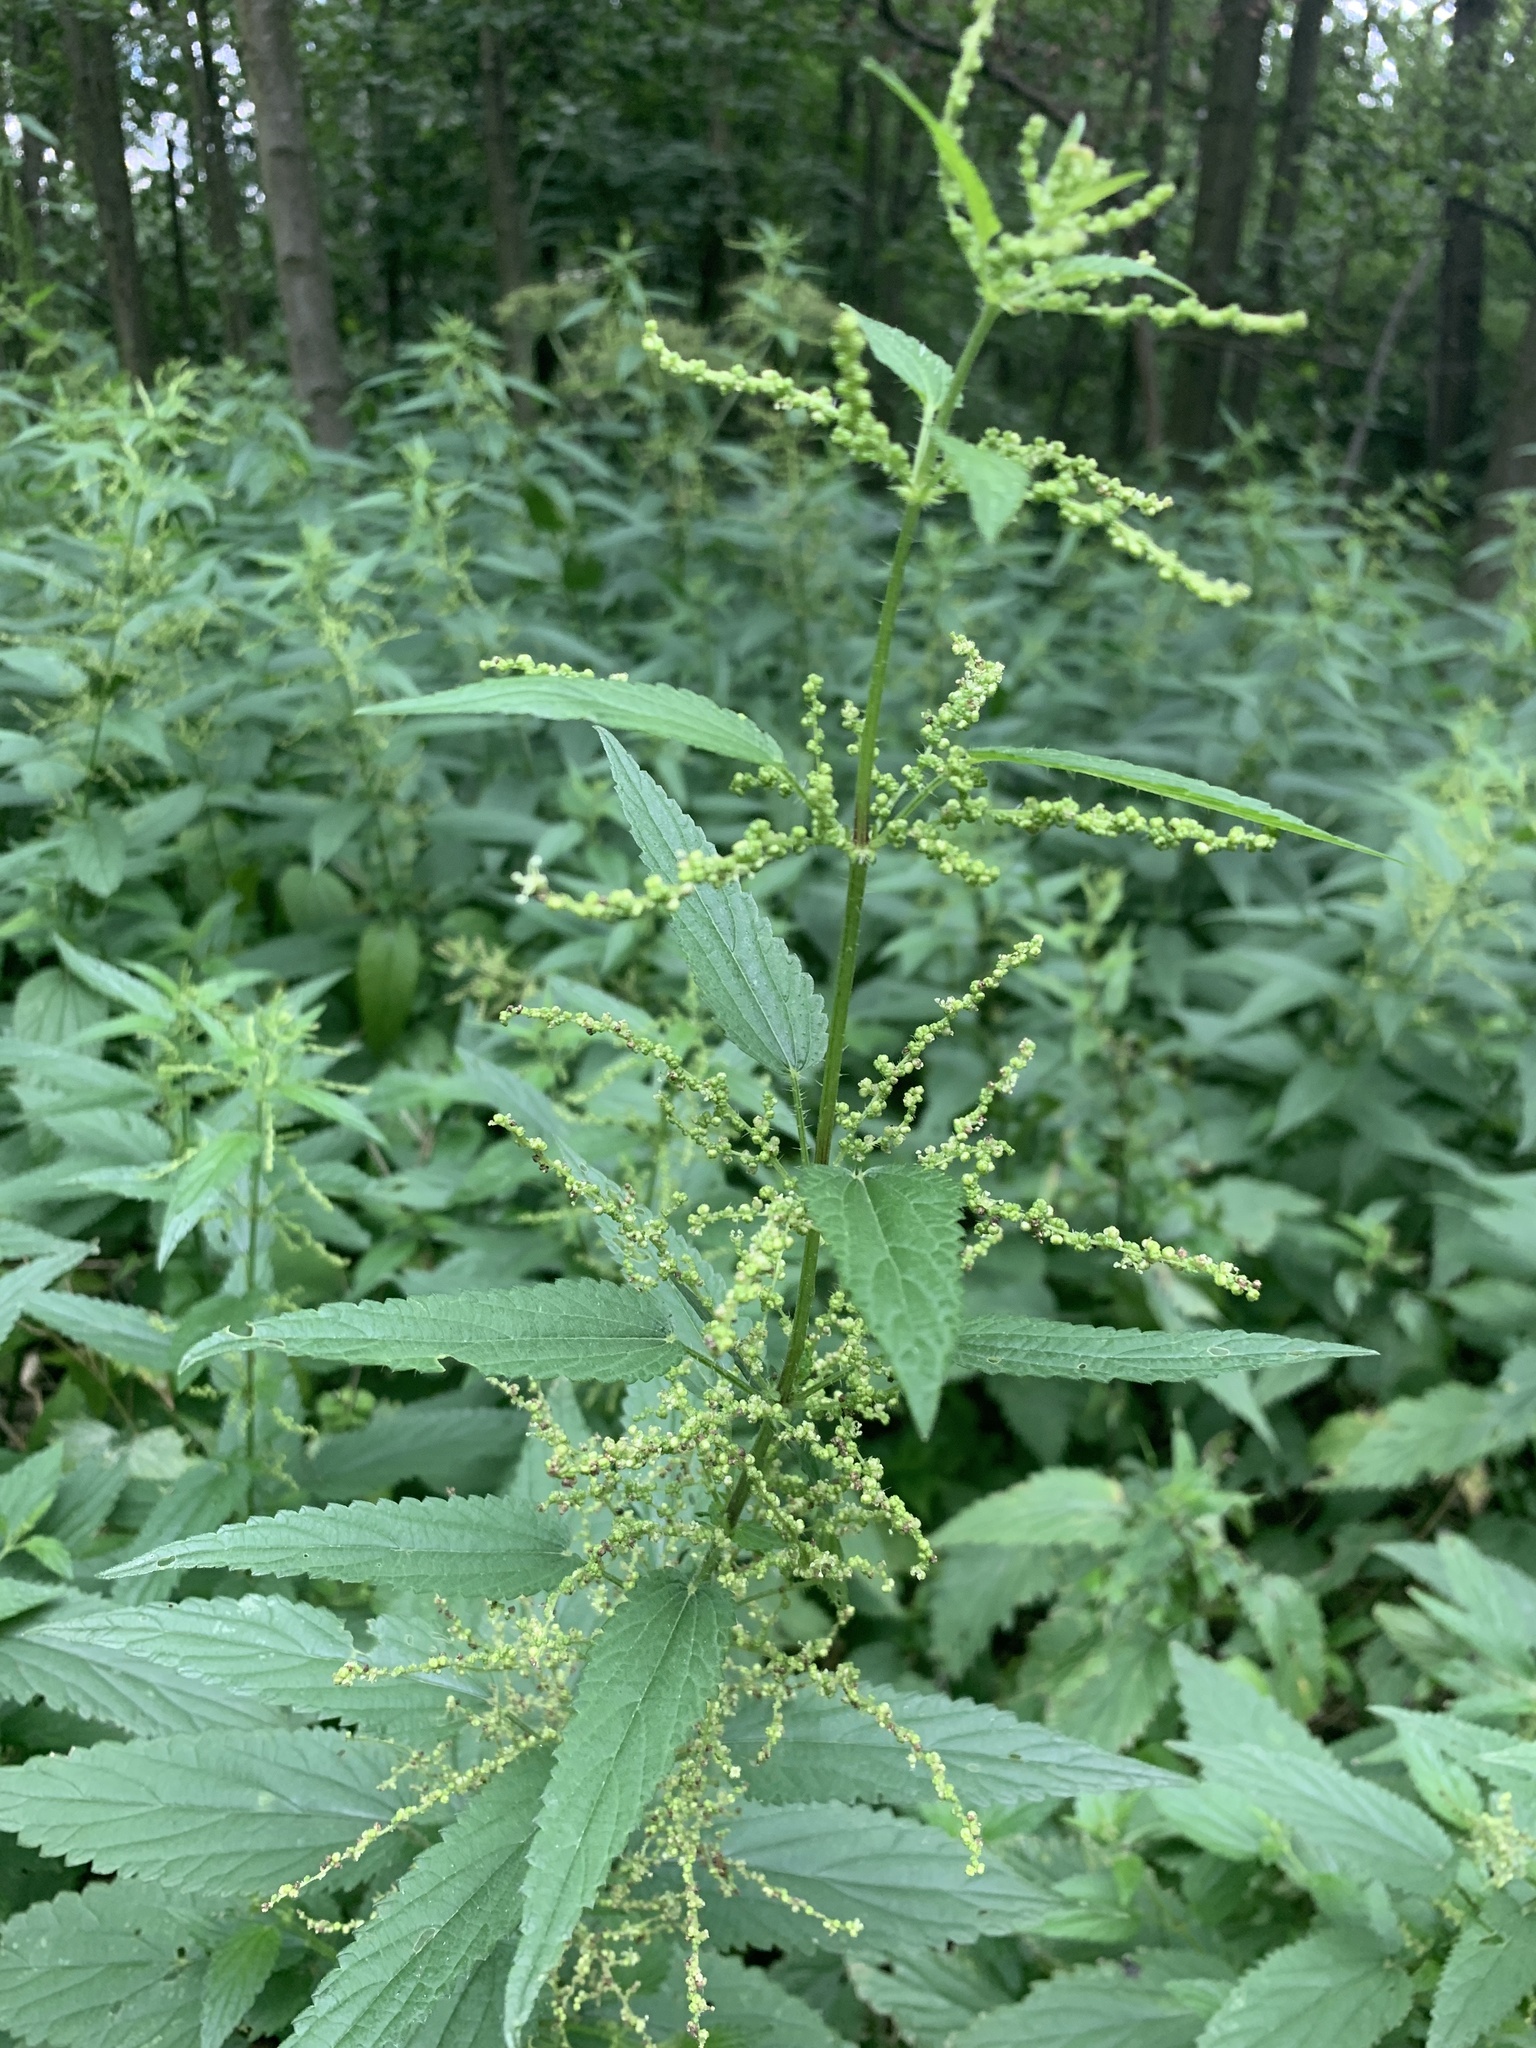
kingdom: Plantae
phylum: Tracheophyta
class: Magnoliopsida
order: Rosales
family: Urticaceae
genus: Urtica
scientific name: Urtica dioica
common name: Common nettle
